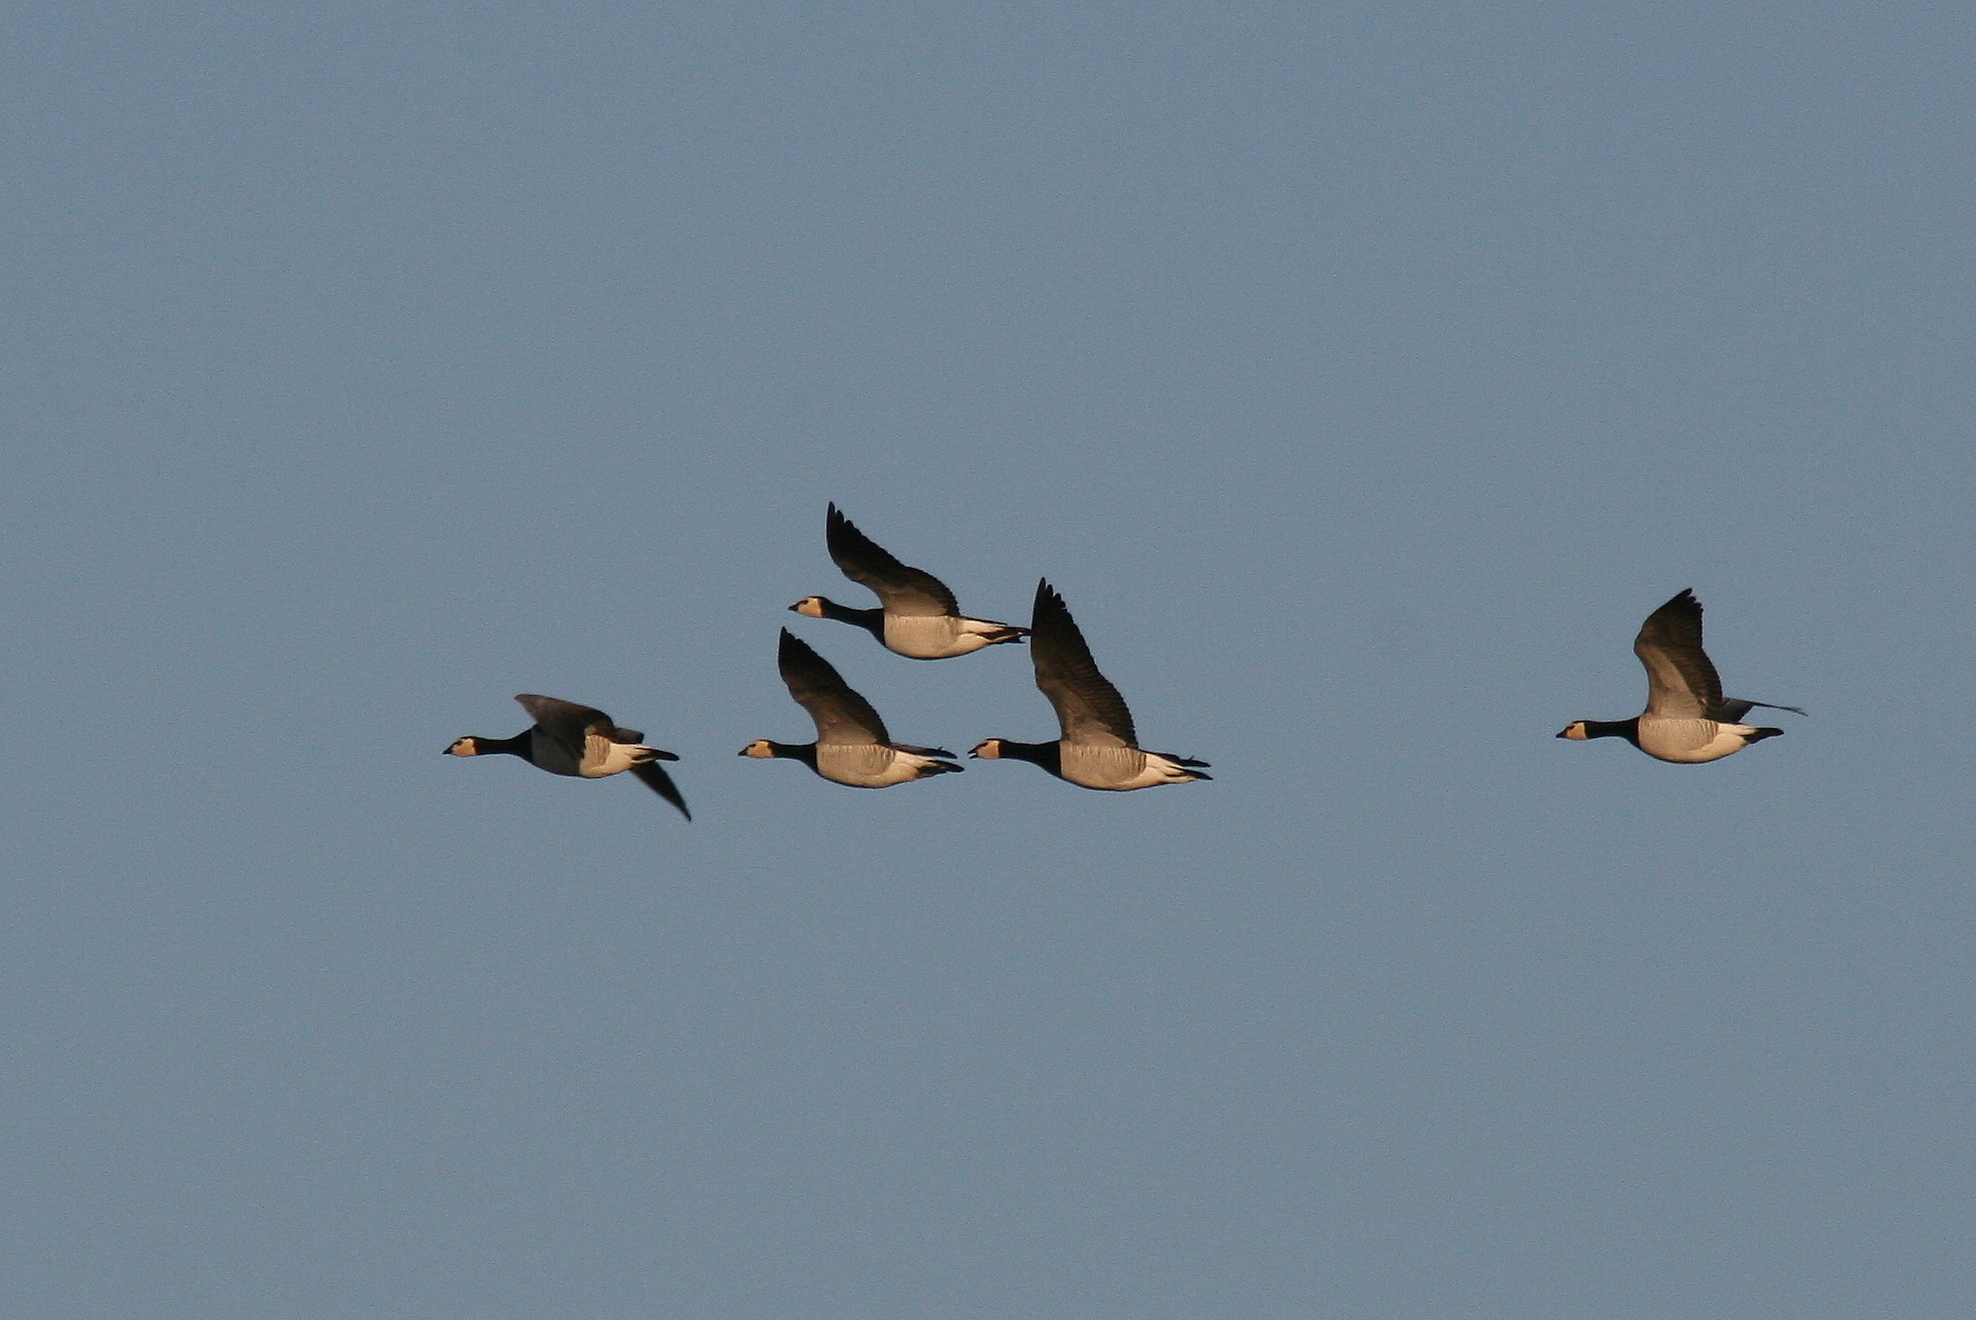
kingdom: Animalia
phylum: Chordata
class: Aves
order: Anseriformes
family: Anatidae
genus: Branta
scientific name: Branta leucopsis
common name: Barnacle goose
